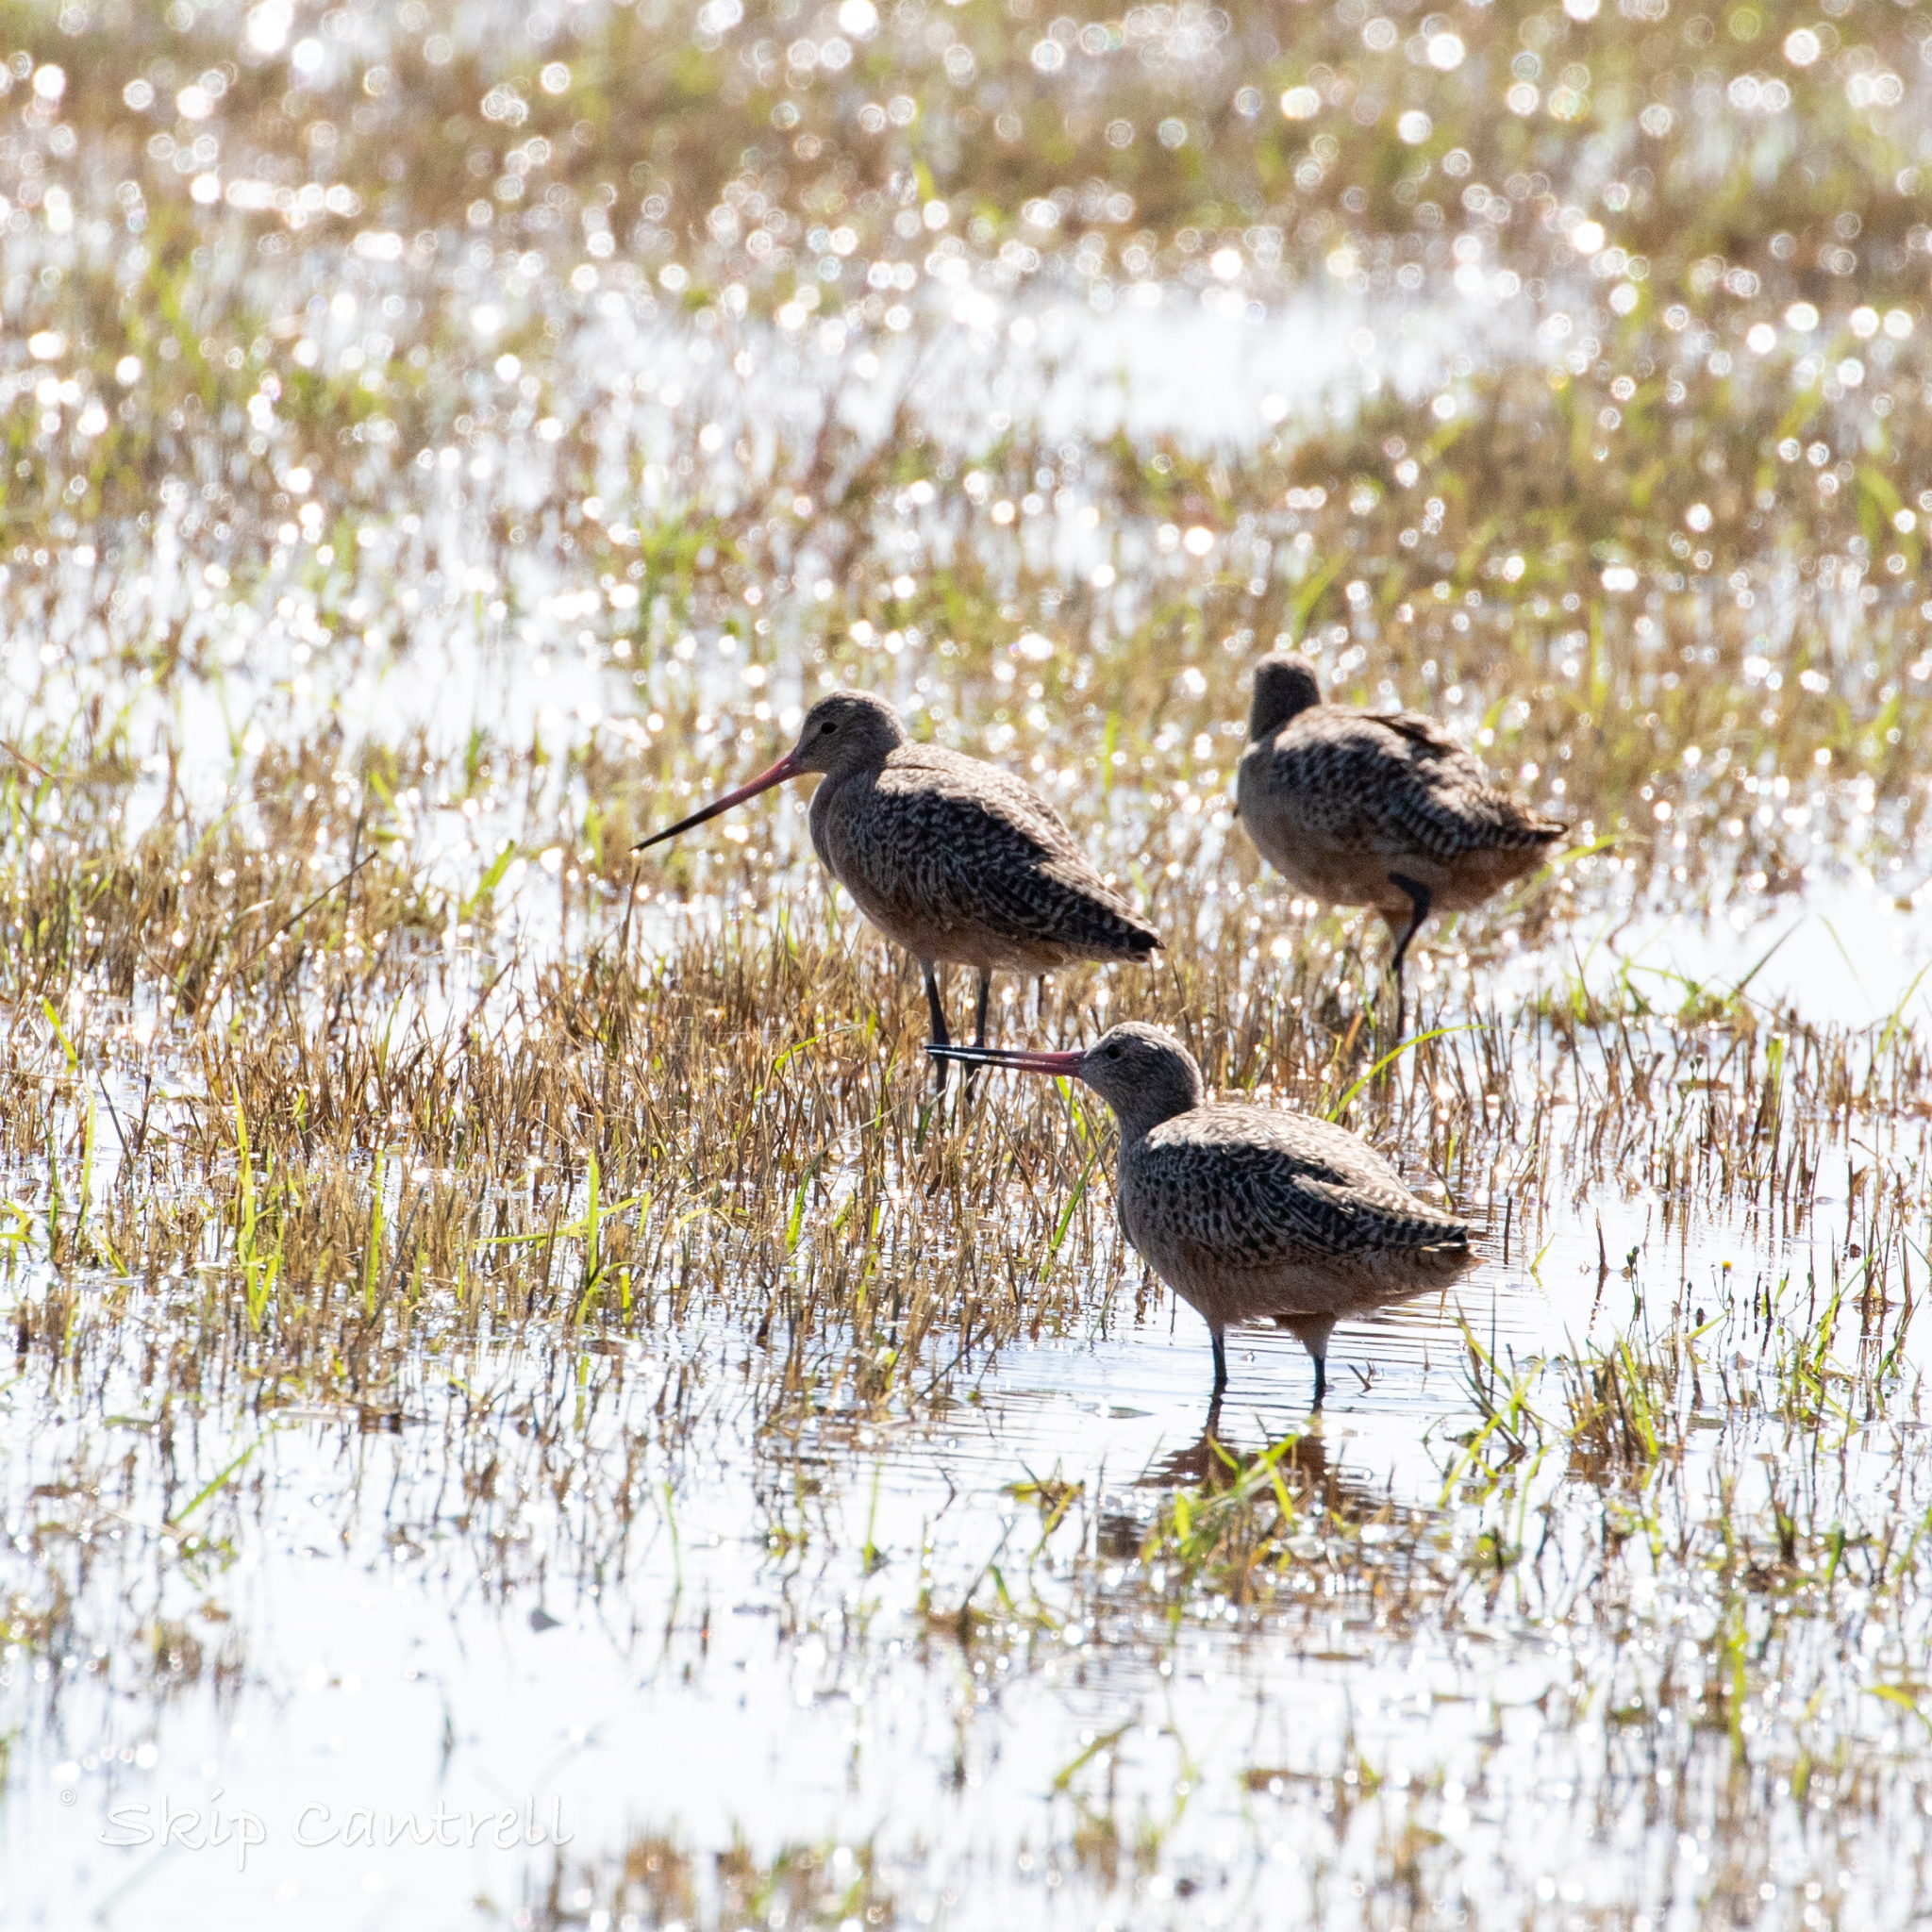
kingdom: Animalia
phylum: Chordata
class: Aves
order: Charadriiformes
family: Scolopacidae
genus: Limosa
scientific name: Limosa fedoa
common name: Marbled godwit
